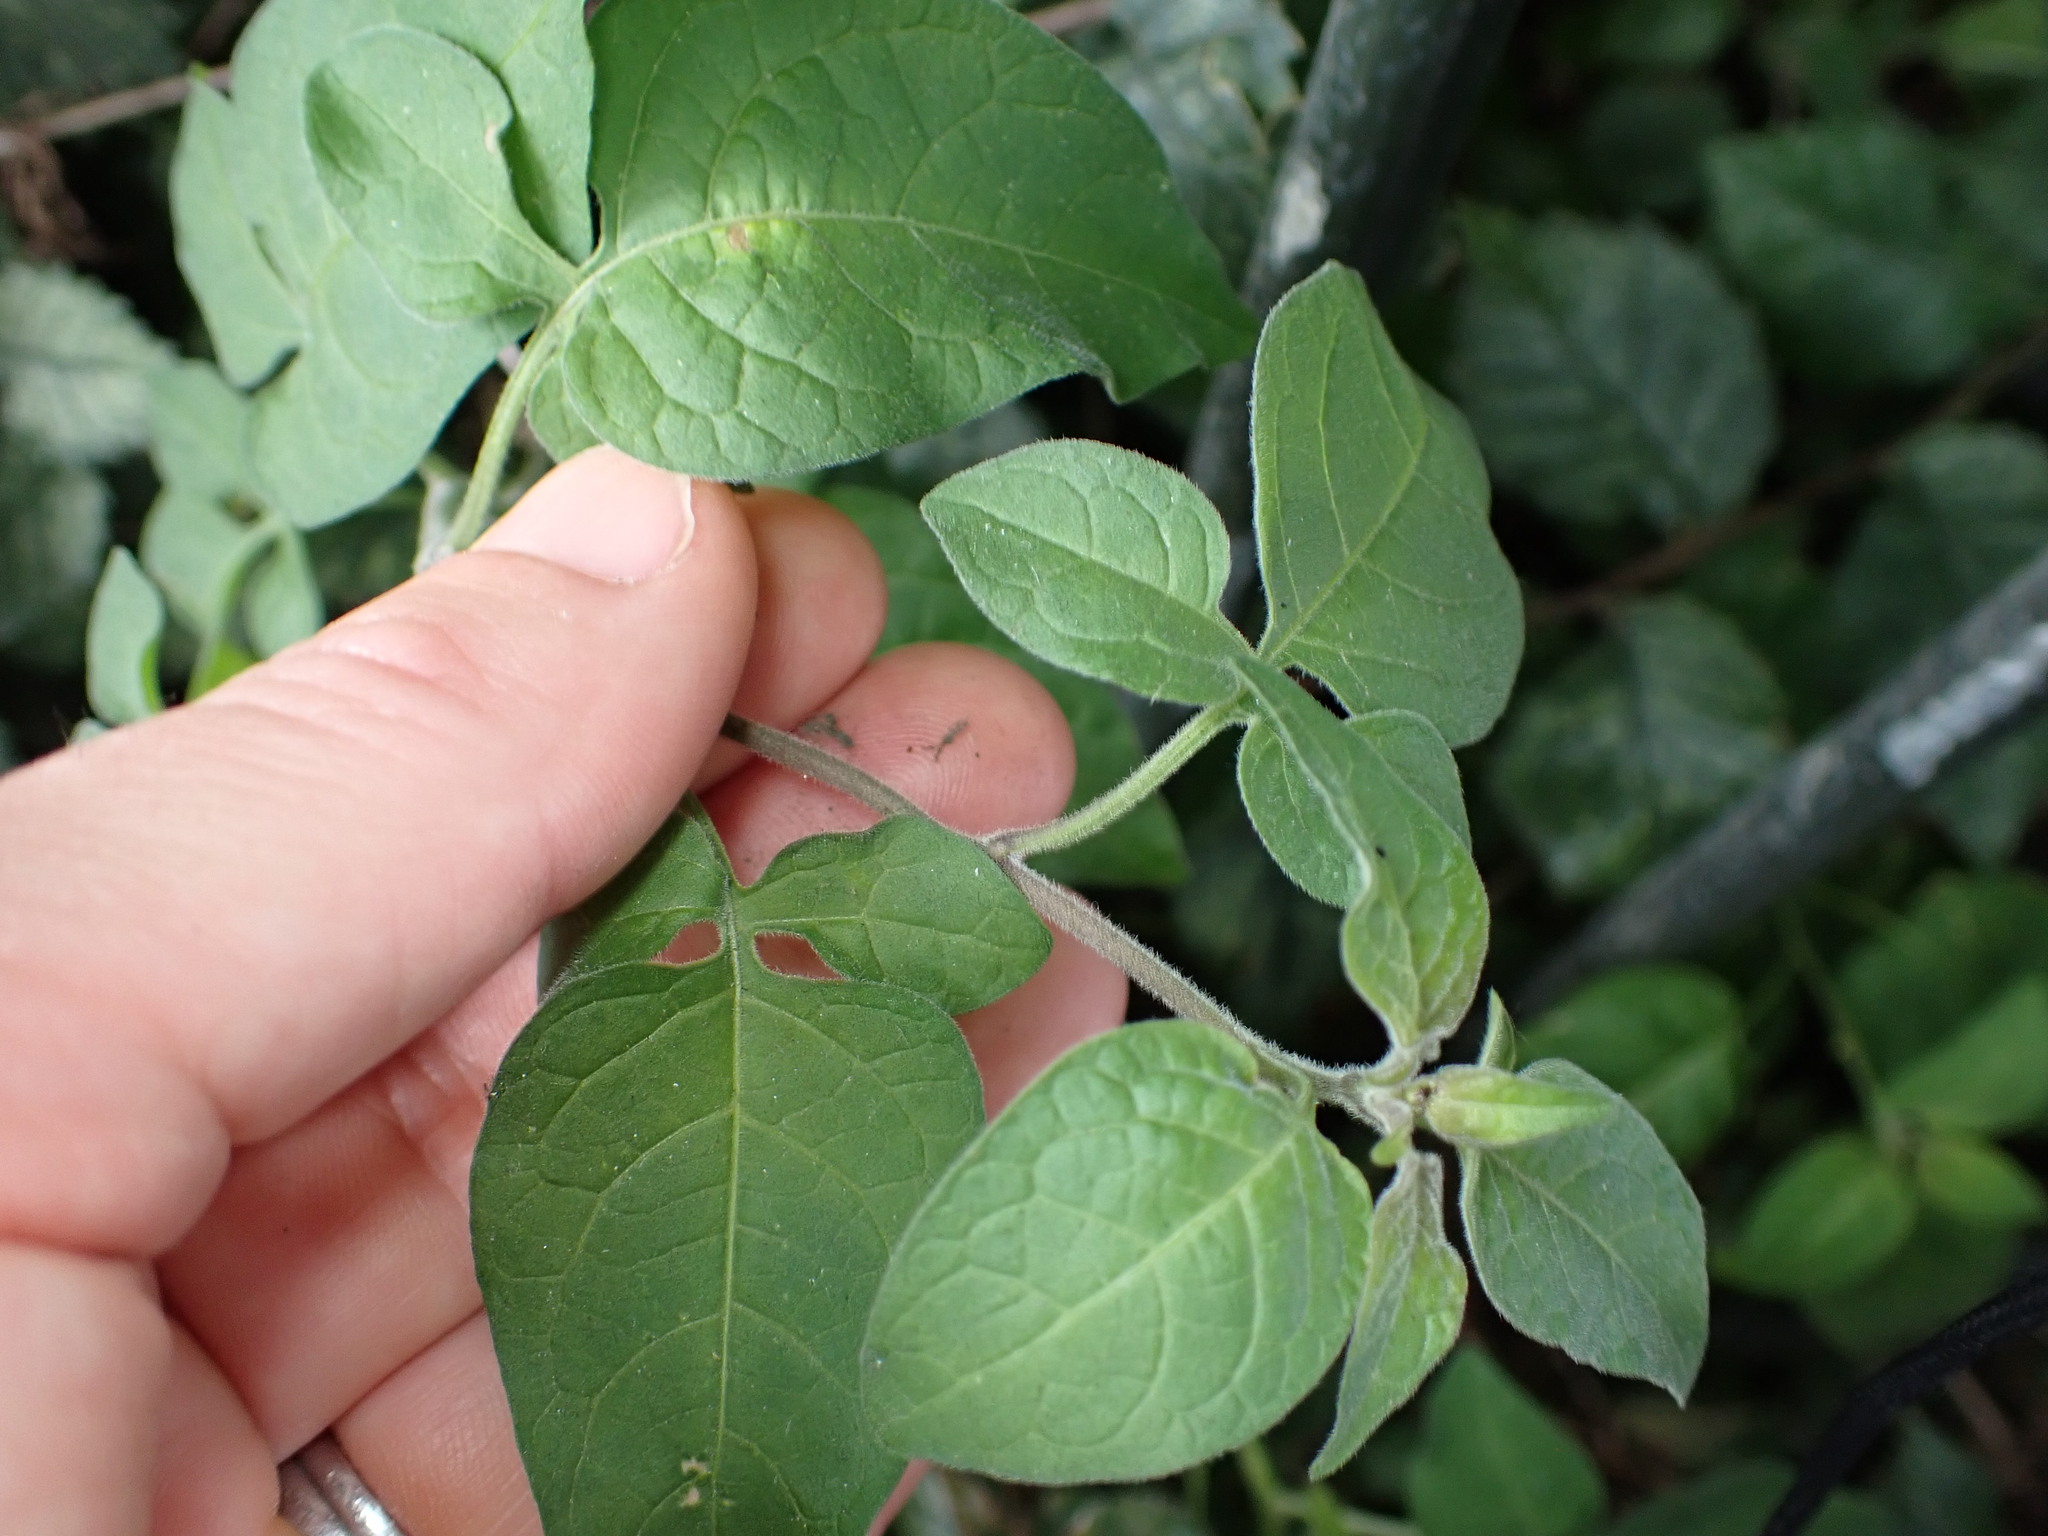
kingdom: Plantae
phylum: Tracheophyta
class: Magnoliopsida
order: Solanales
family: Solanaceae
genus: Solanum
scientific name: Solanum dulcamara
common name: Climbing nightshade
